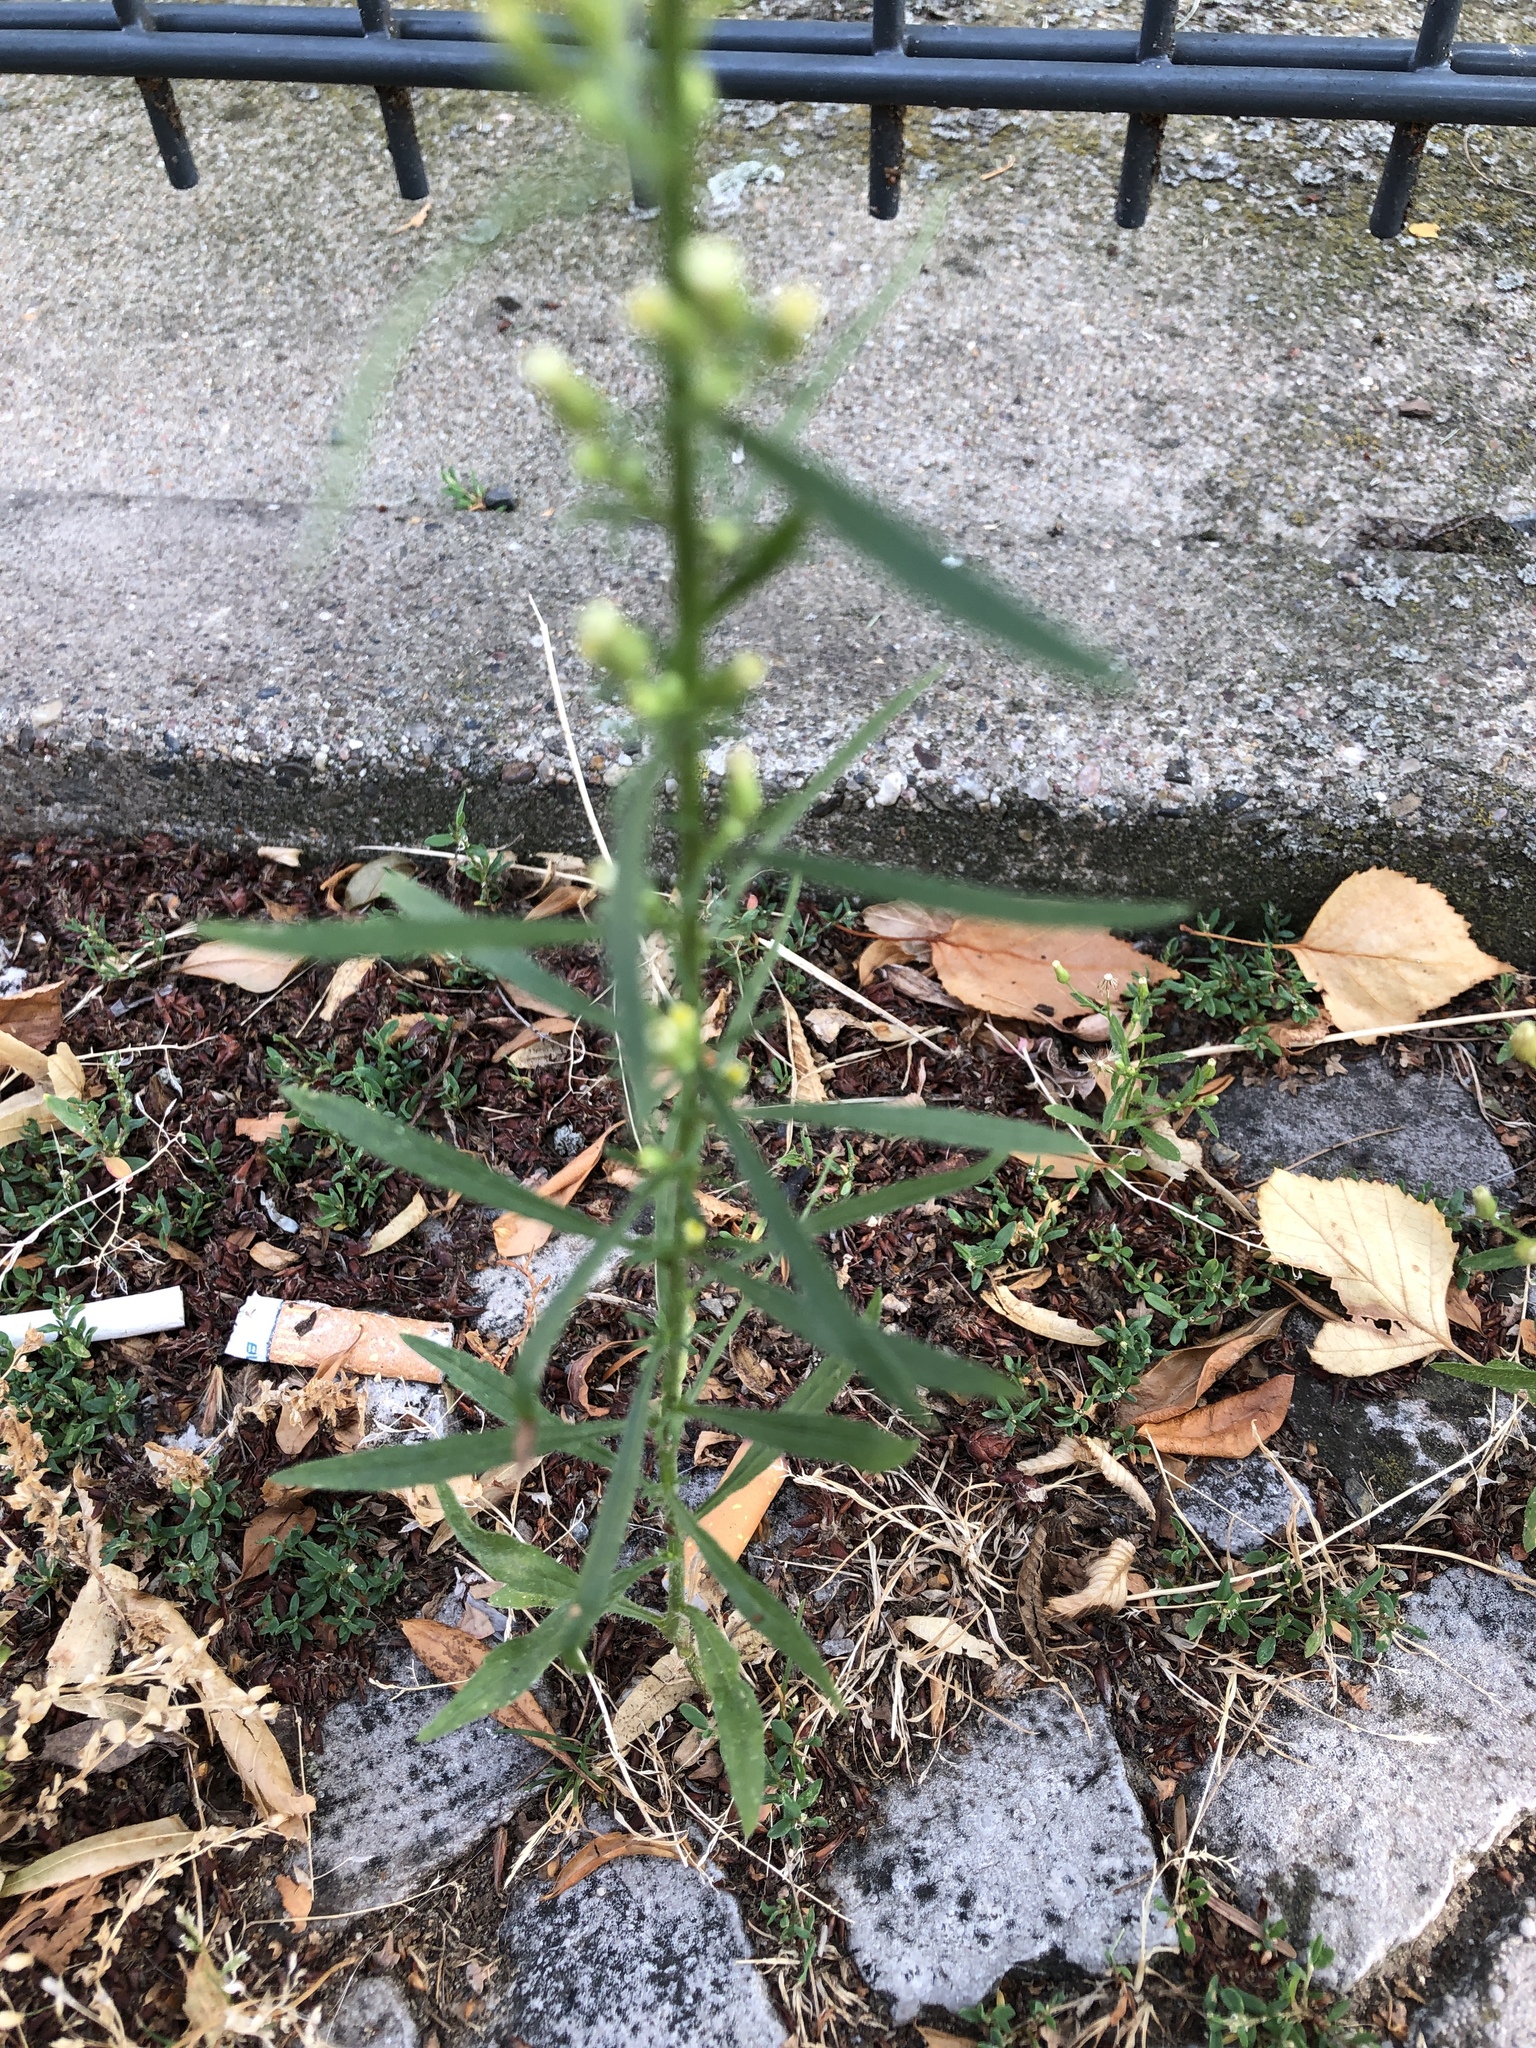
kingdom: Plantae
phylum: Tracheophyta
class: Magnoliopsida
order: Asterales
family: Asteraceae
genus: Erigeron
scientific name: Erigeron canadensis
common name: Canadian fleabane
